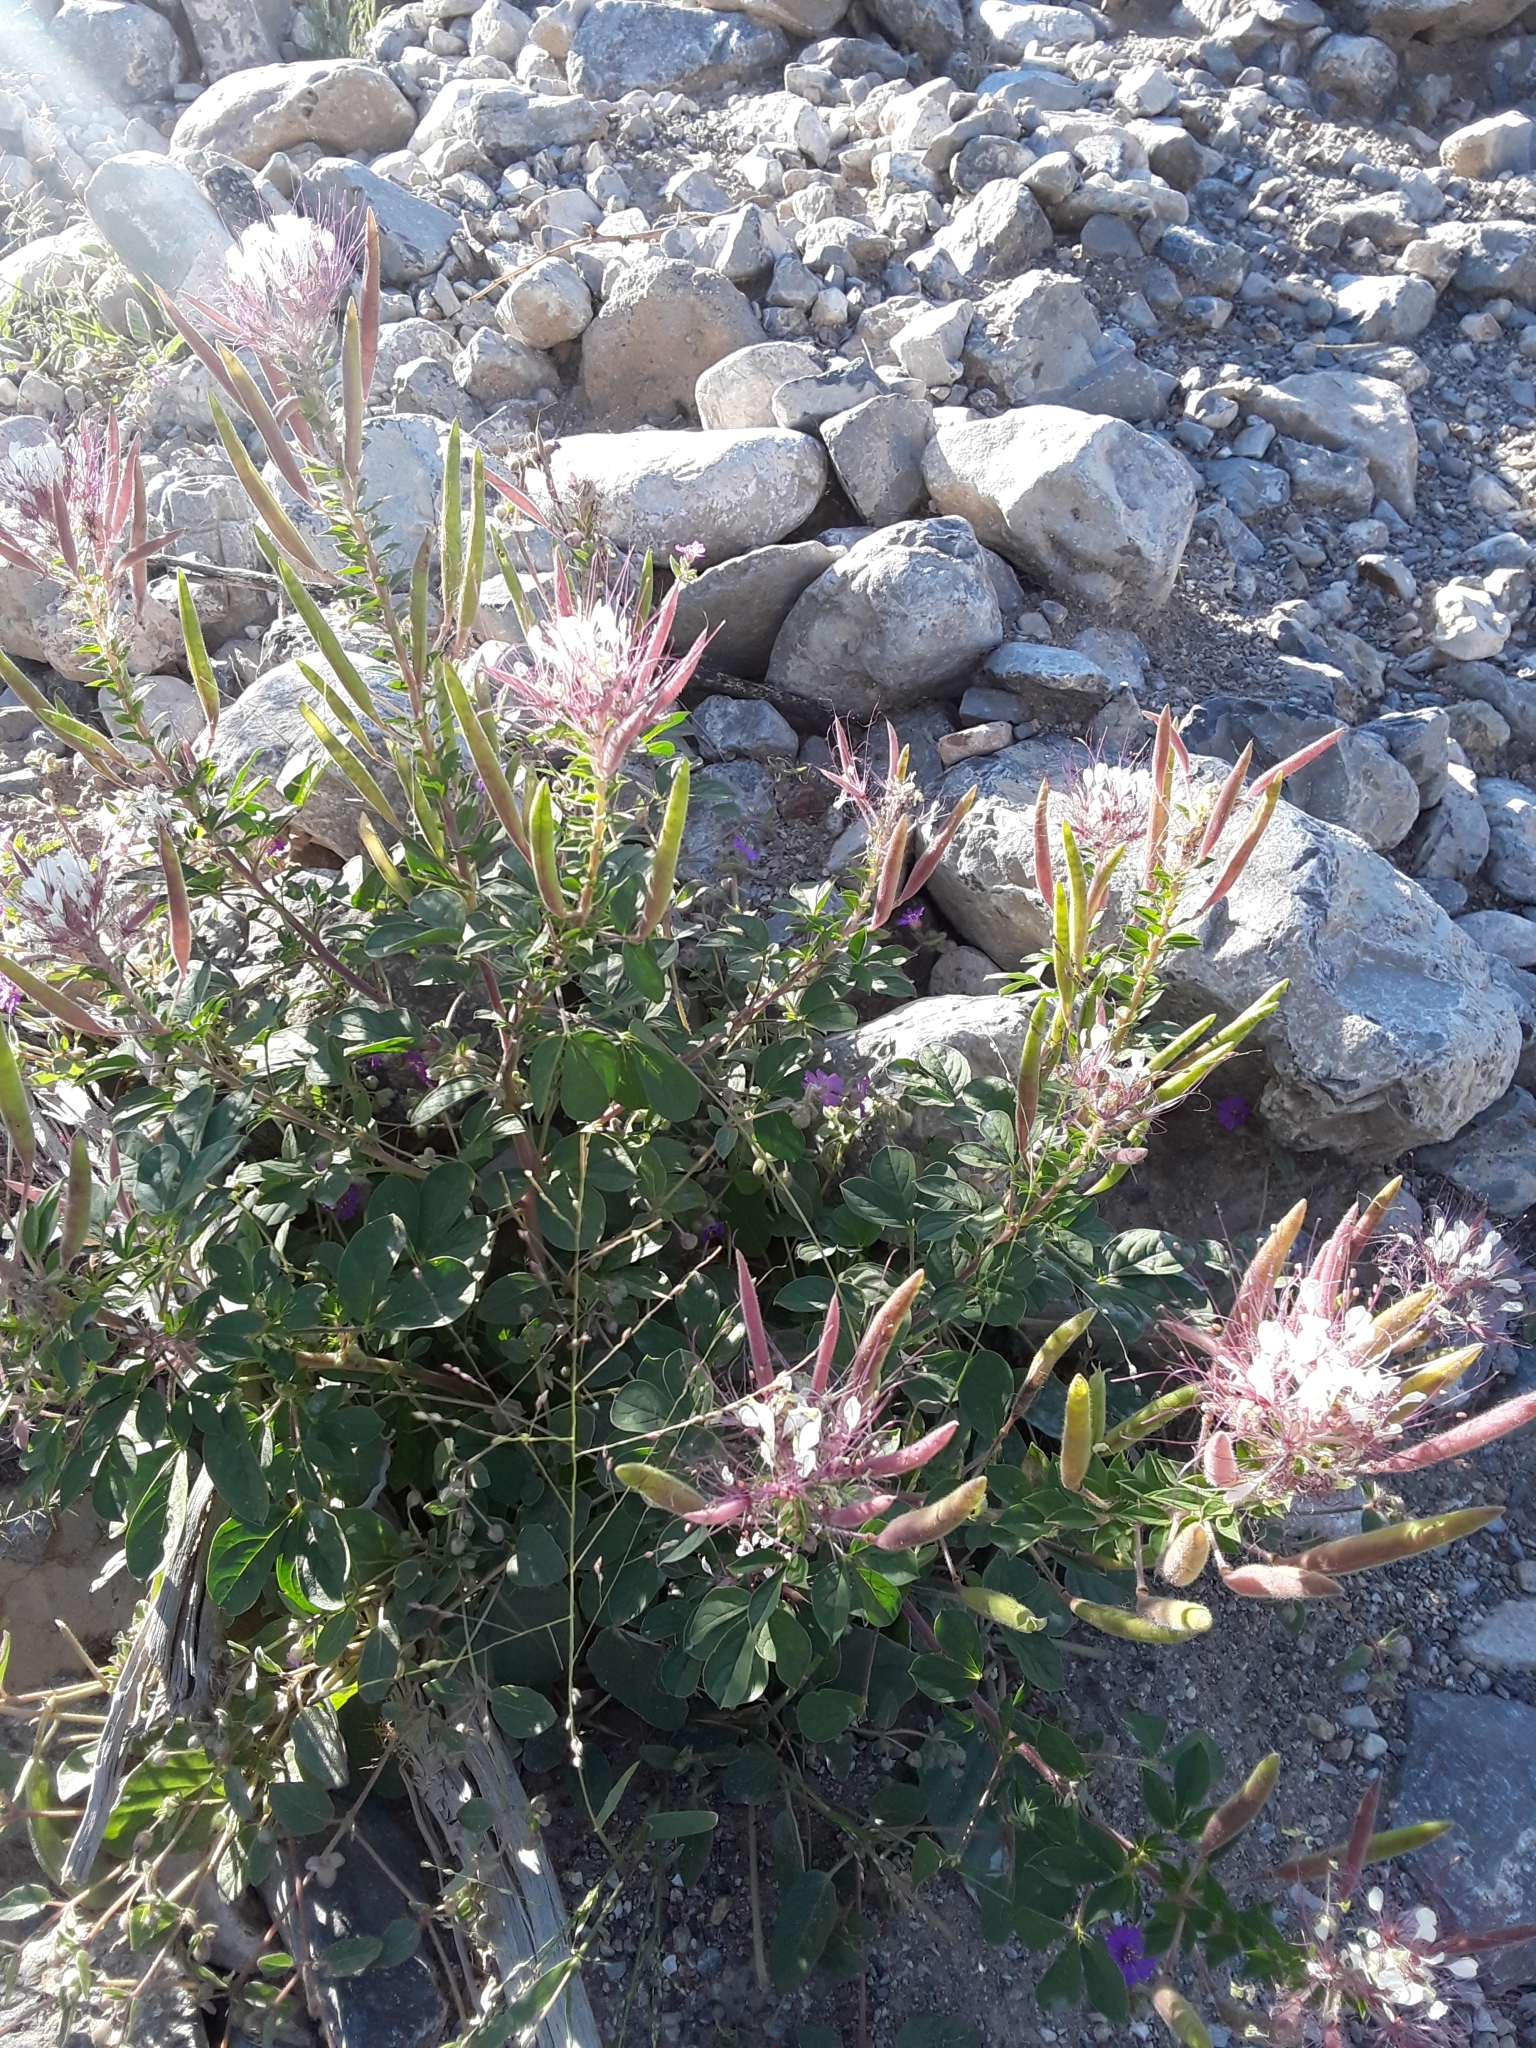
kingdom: Plantae
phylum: Tracheophyta
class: Magnoliopsida
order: Brassicales
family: Cleomaceae
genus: Polanisia
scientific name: Polanisia dodecandra
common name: Clammyweed
